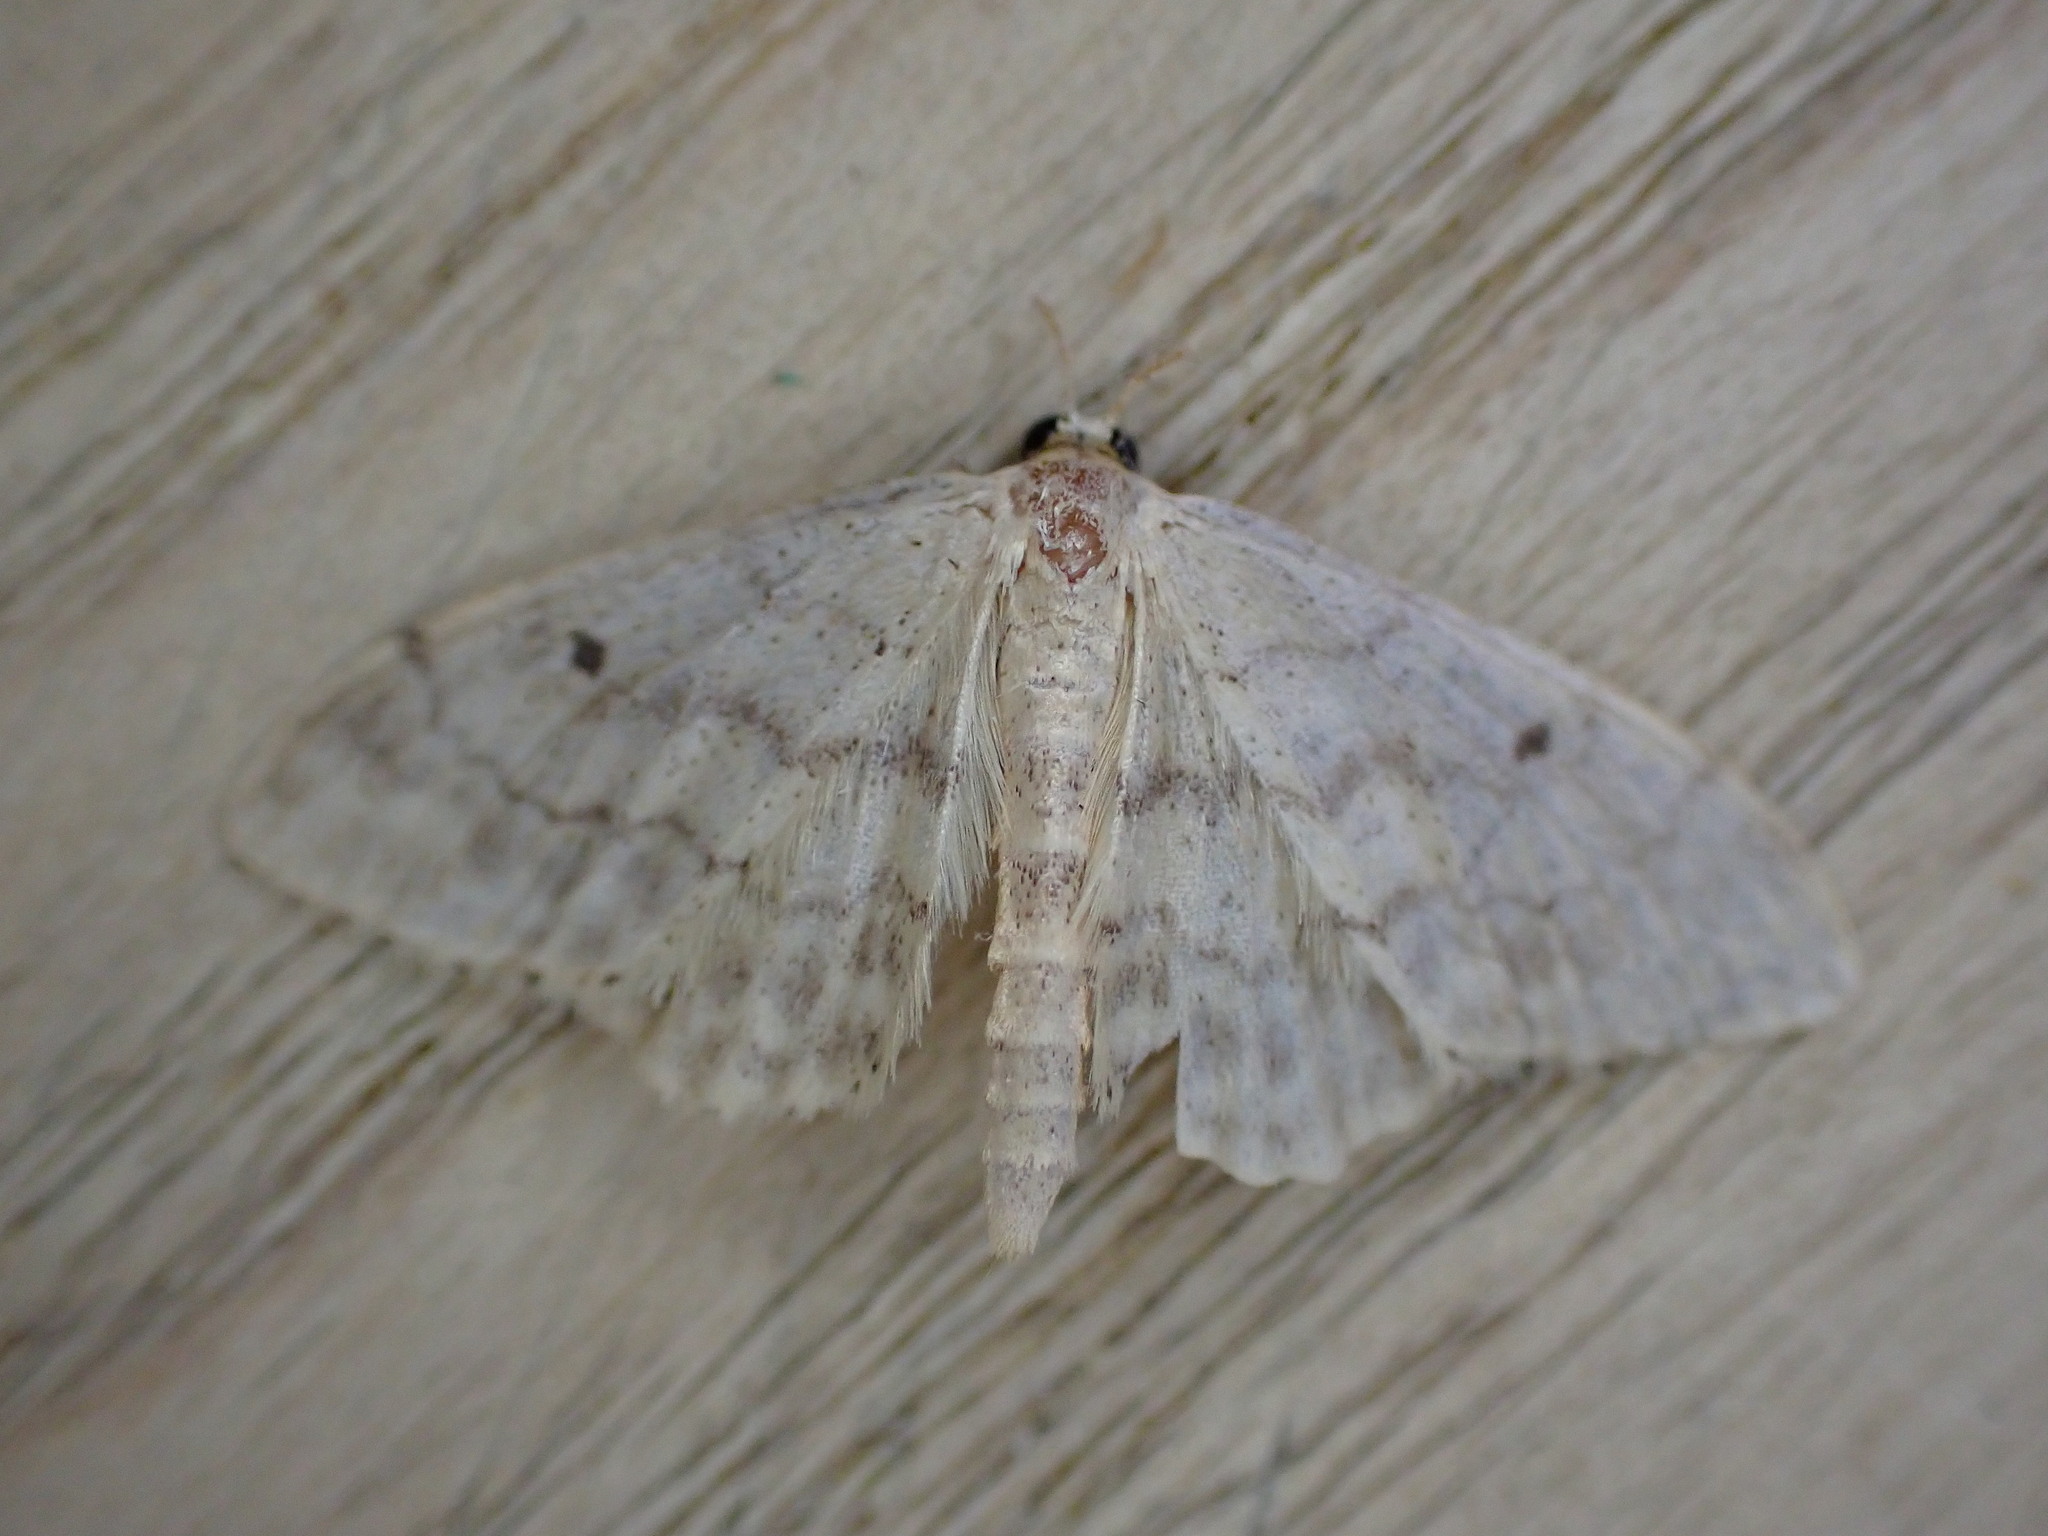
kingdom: Animalia
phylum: Arthropoda
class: Insecta
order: Lepidoptera
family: Geometridae
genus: Idaea
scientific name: Idaea biselata
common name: Small fan-footed wave
